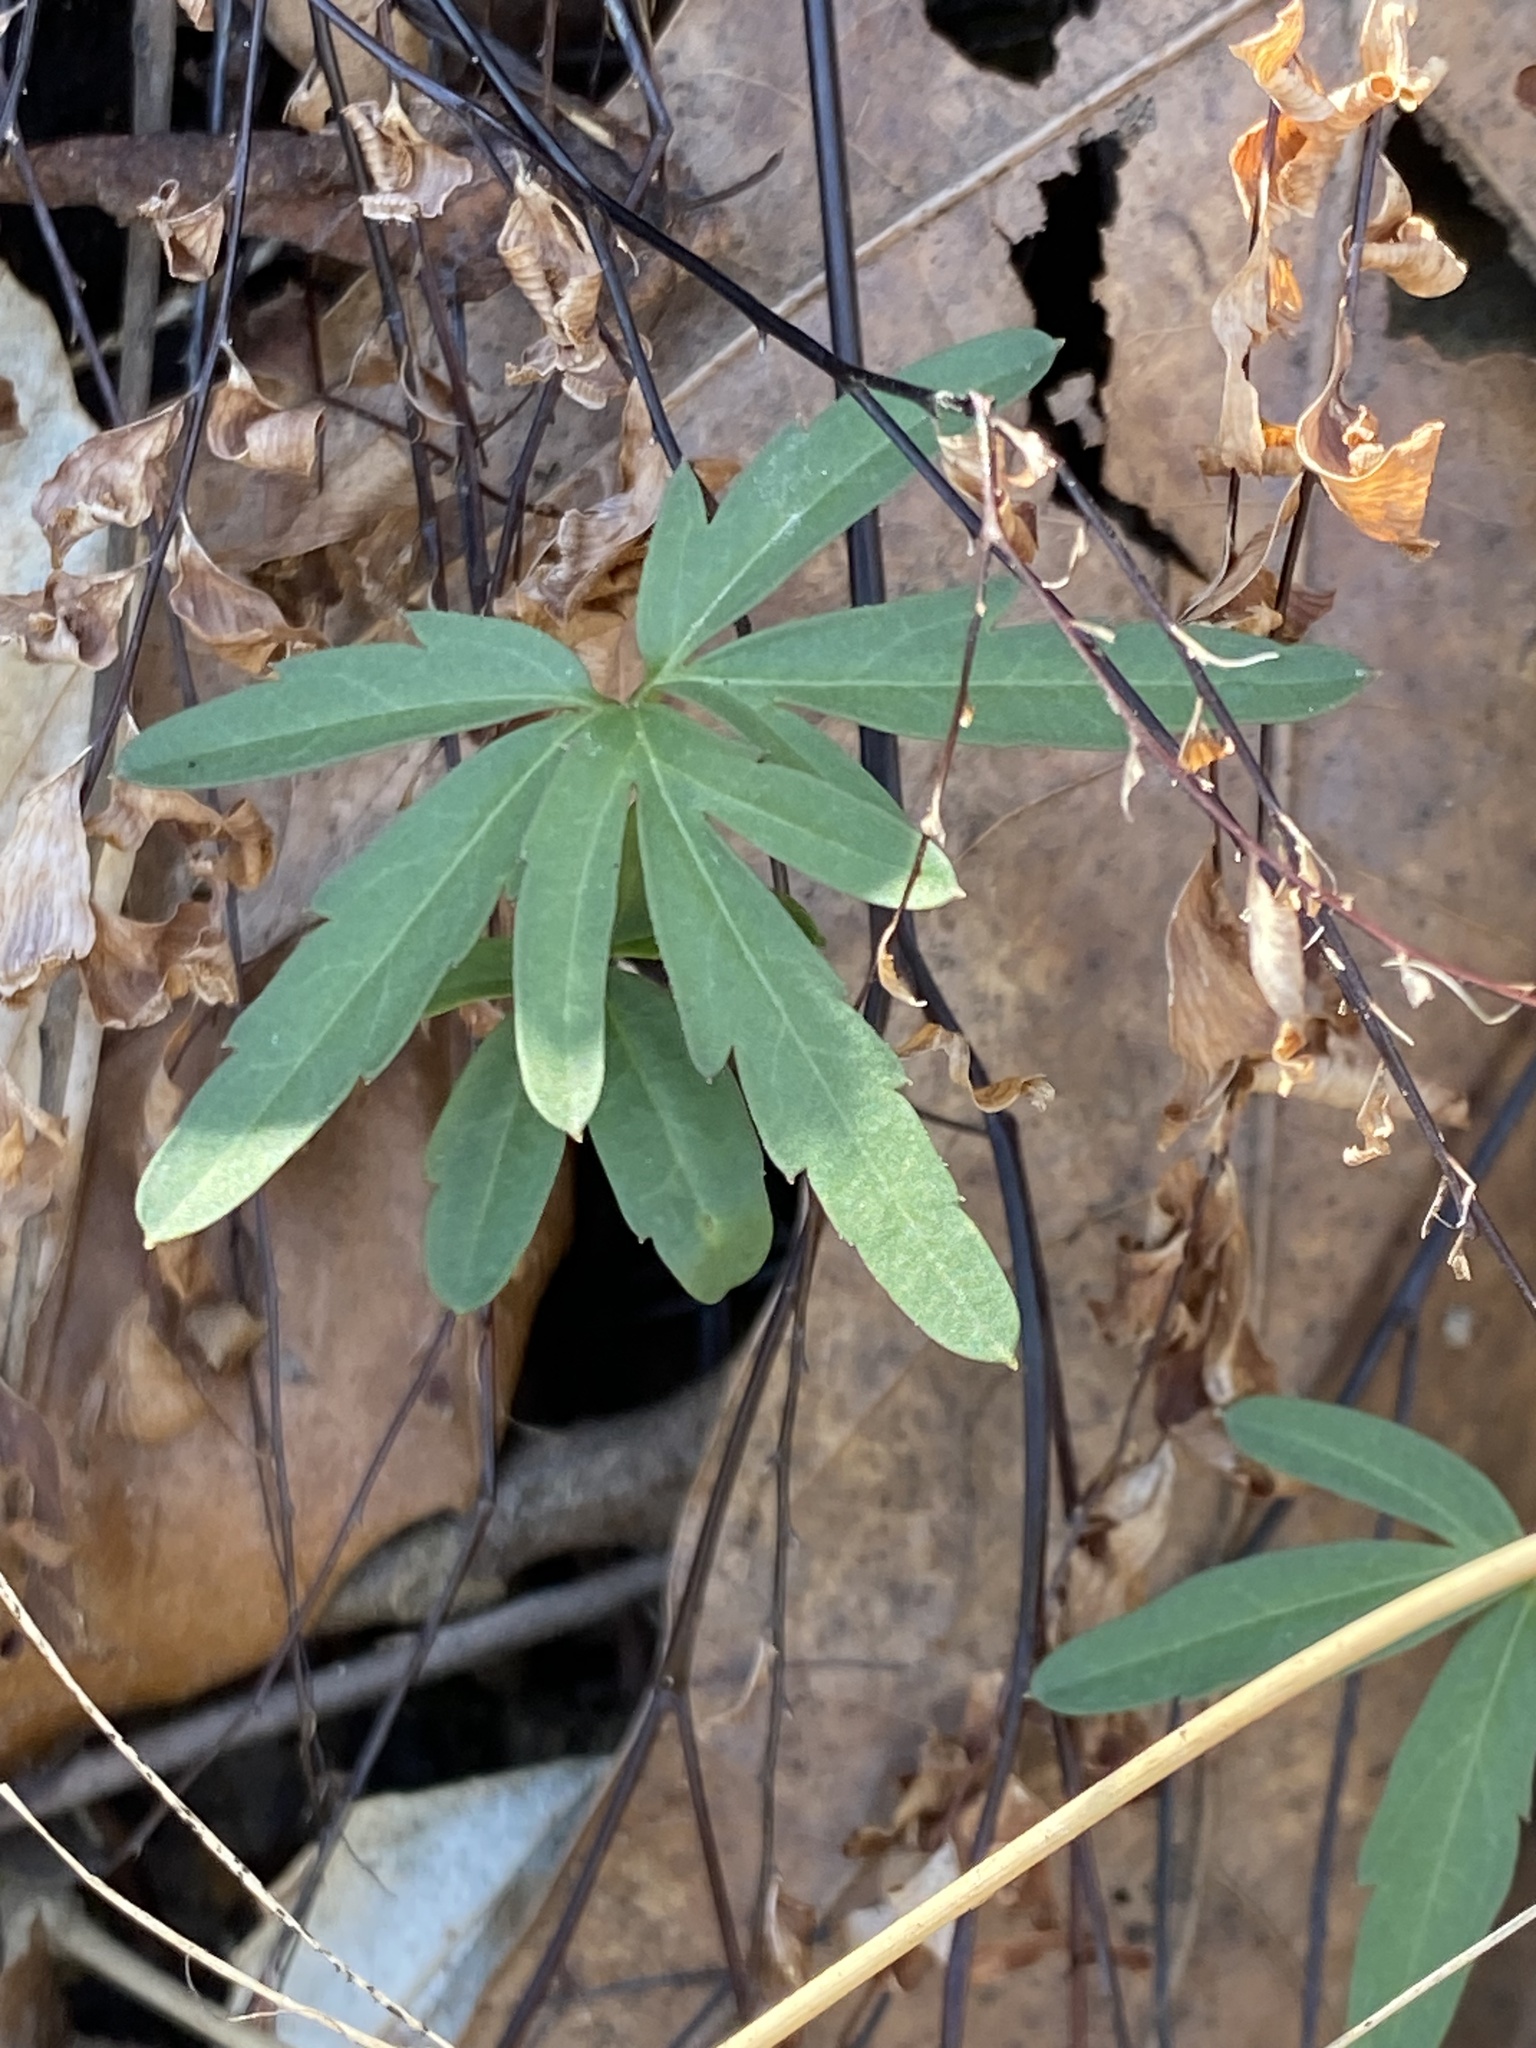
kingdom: Plantae
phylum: Tracheophyta
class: Magnoliopsida
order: Brassicales
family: Brassicaceae
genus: Cardamine
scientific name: Cardamine concatenata
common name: Cut-leaf toothcup
